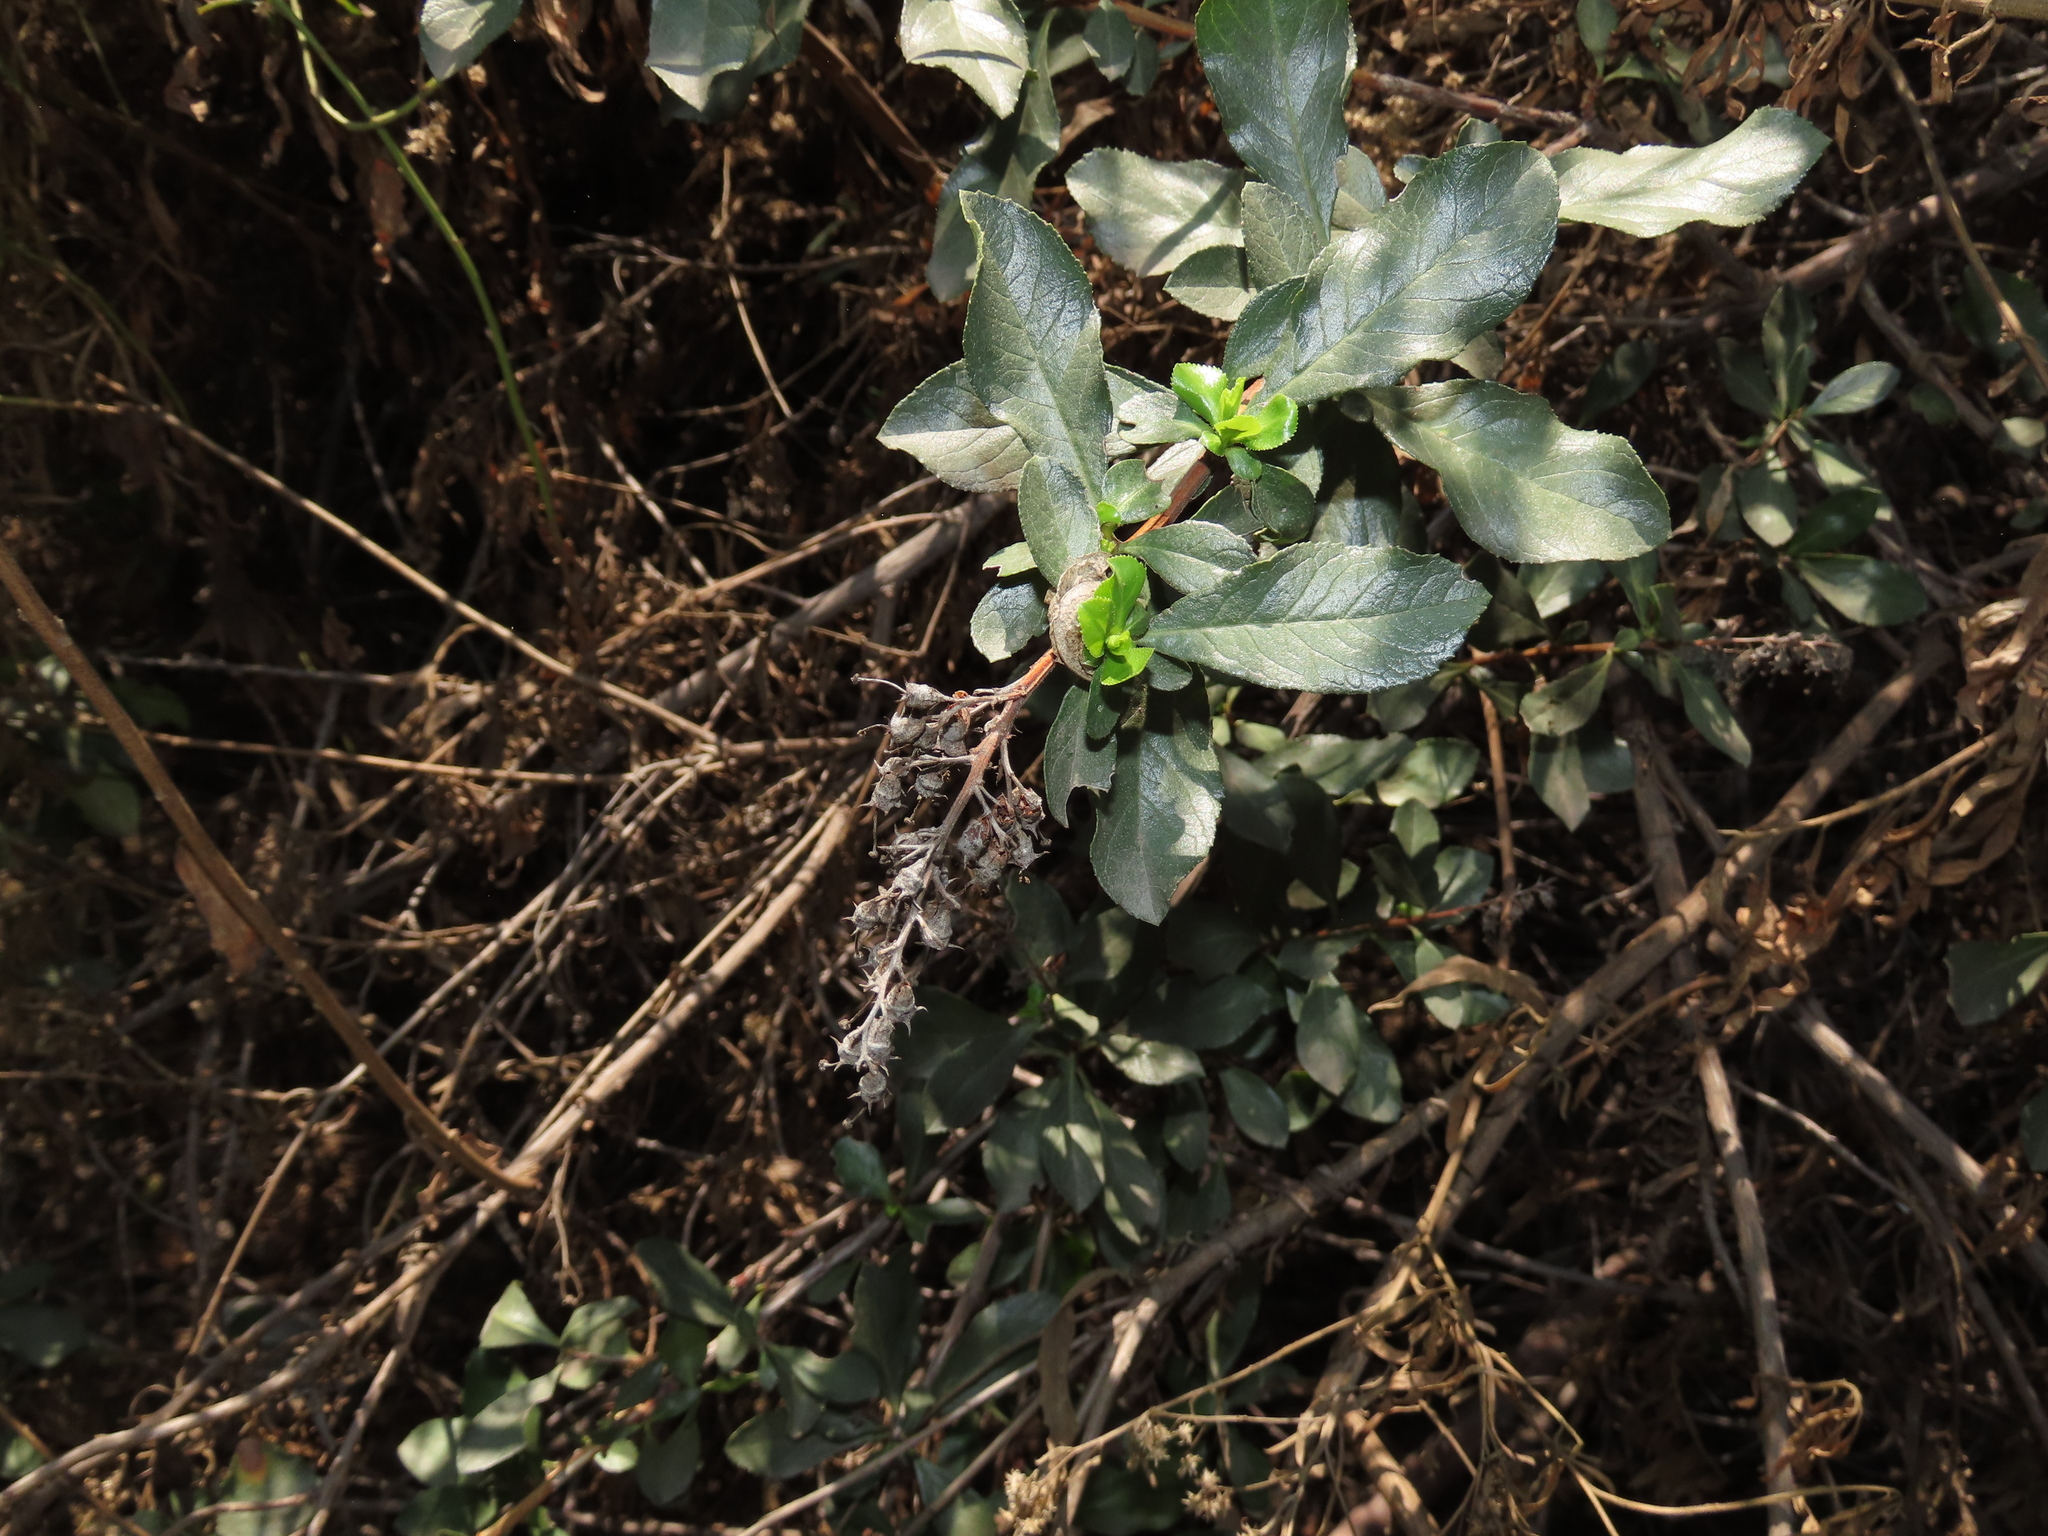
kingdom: Plantae
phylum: Tracheophyta
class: Magnoliopsida
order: Escalloniales
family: Escalloniaceae
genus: Escallonia
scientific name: Escallonia myrtoidea
